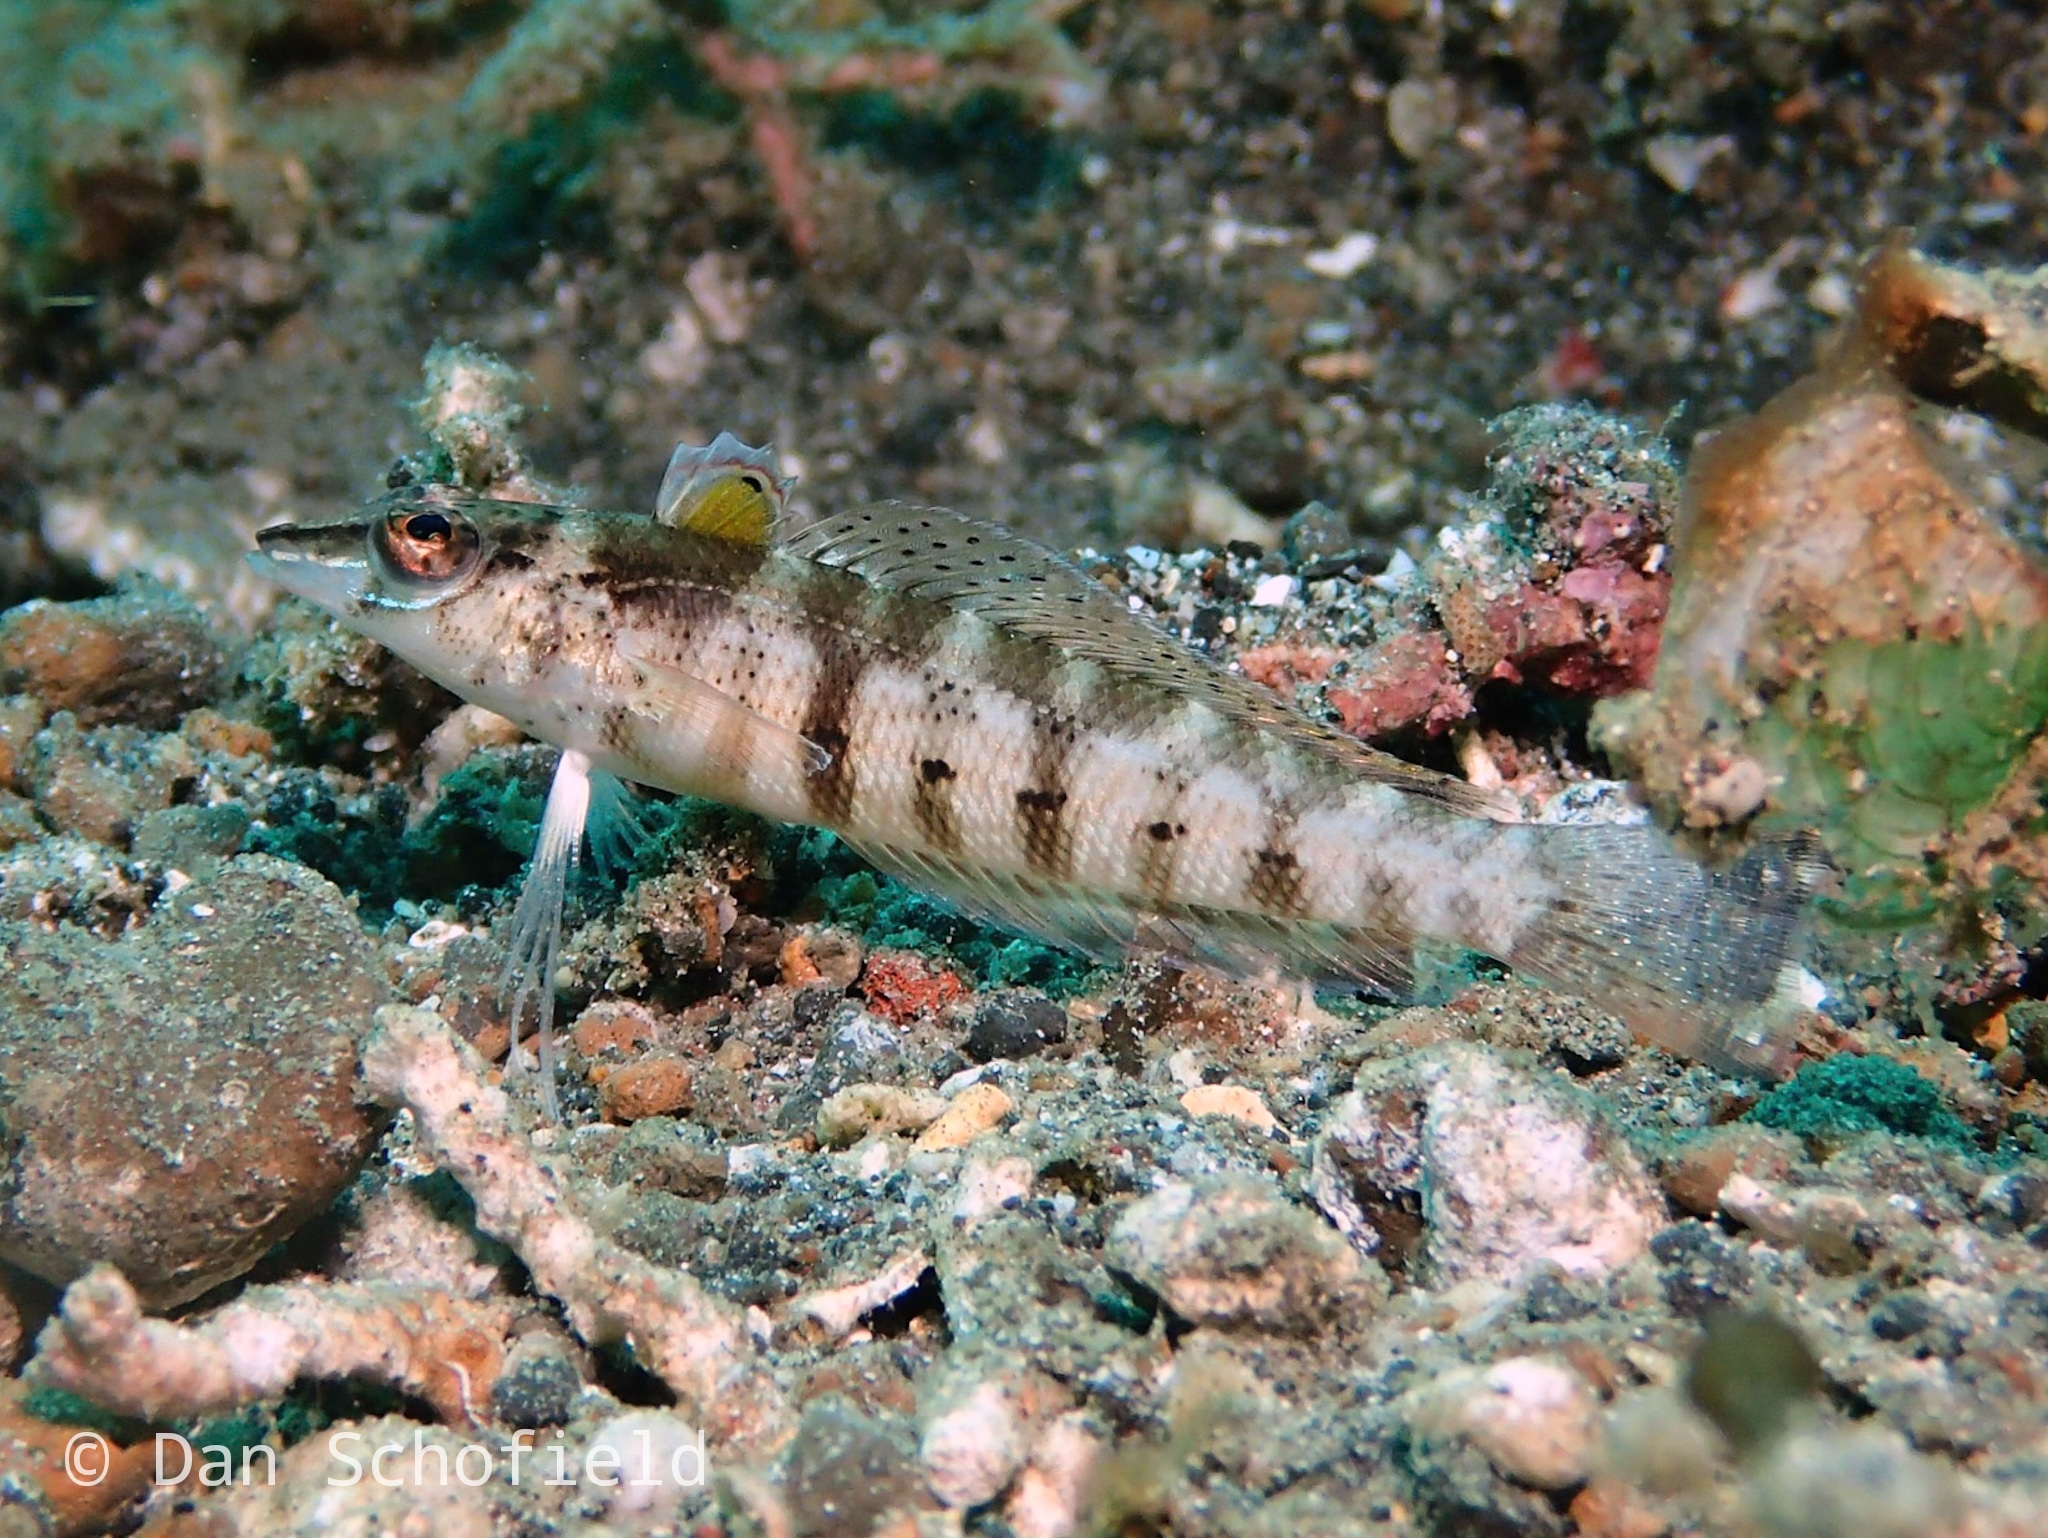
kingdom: Animalia
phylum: Chordata
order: Perciformes
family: Pinguipedidae
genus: Parapercis
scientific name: Parapercis snyderi
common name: U-mark sandperch
